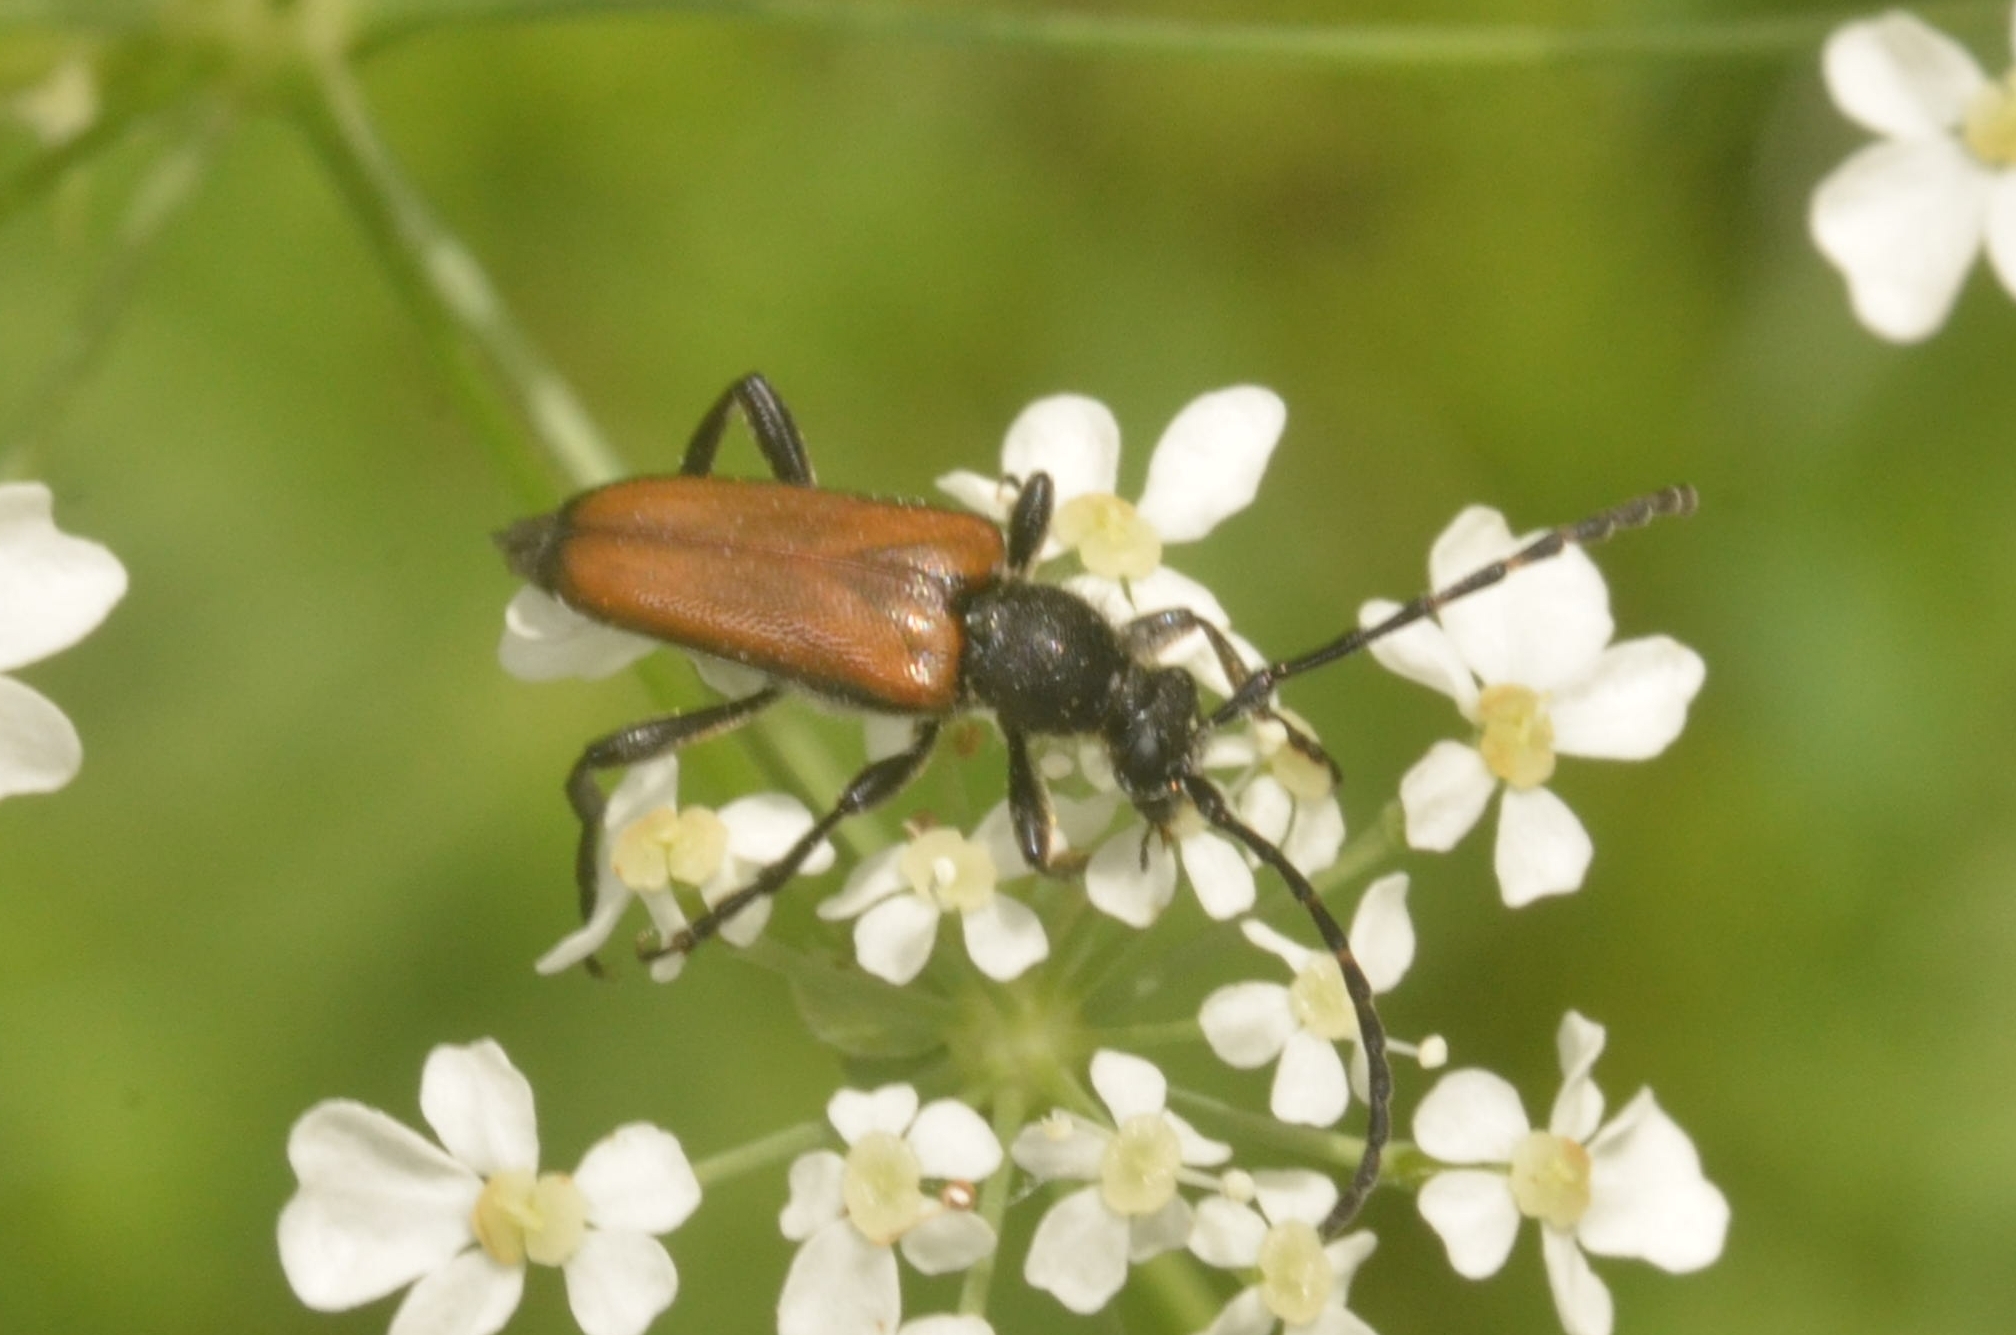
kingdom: Animalia
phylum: Arthropoda
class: Insecta
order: Coleoptera
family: Cerambycidae
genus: Paracorymbia
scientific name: Paracorymbia maculicornis
